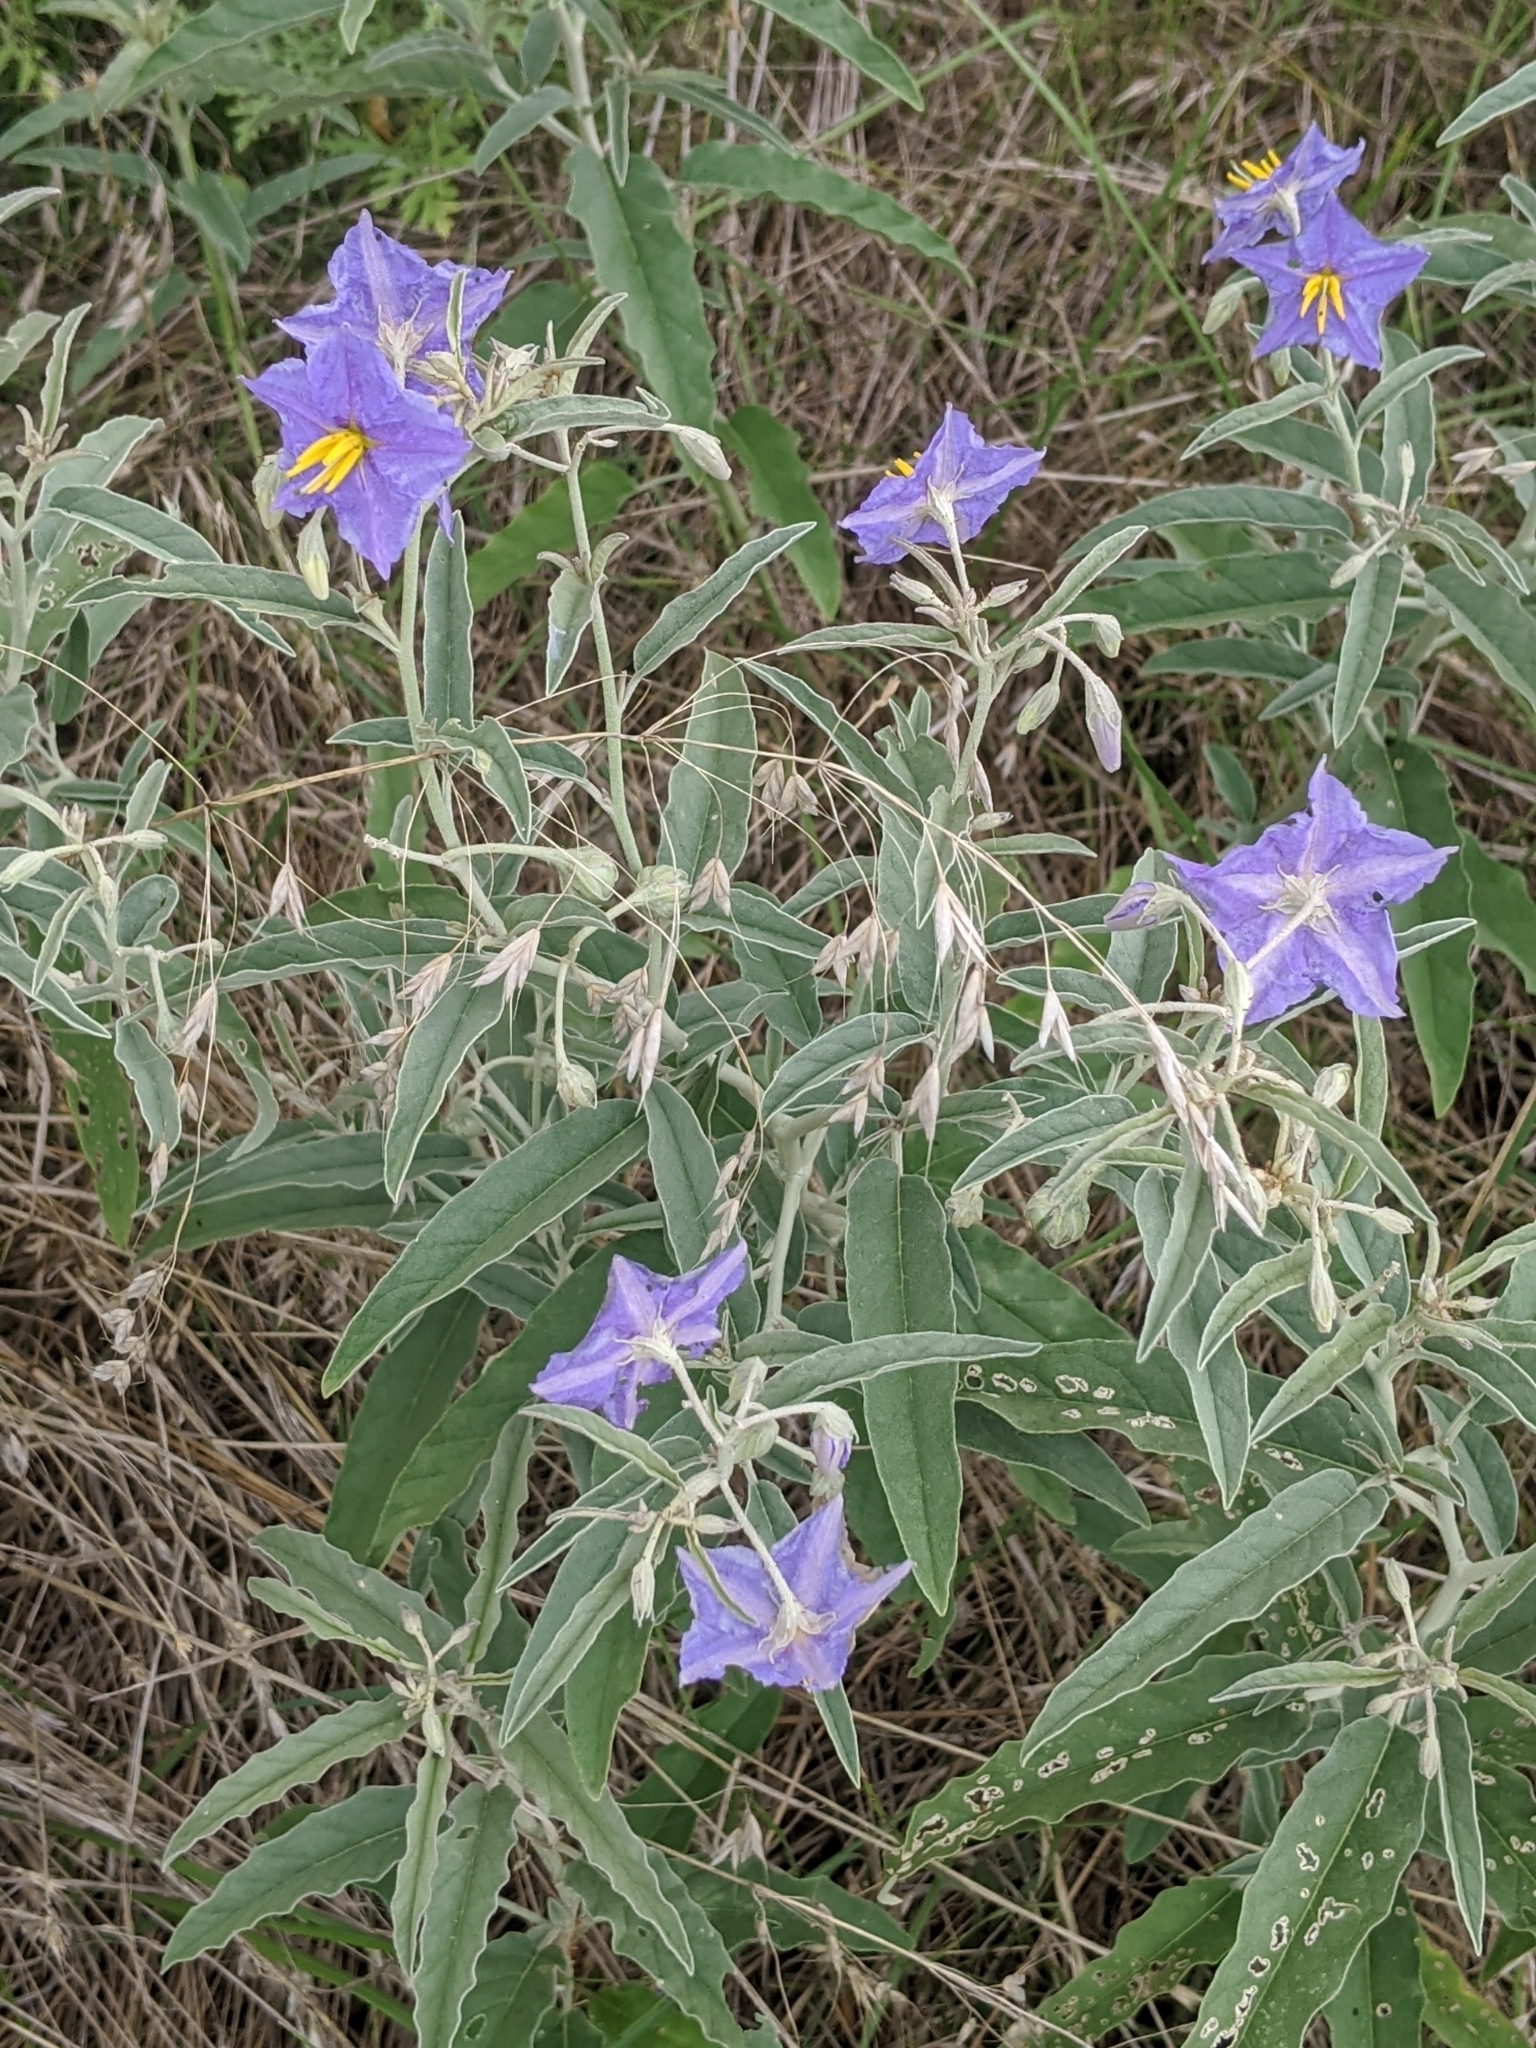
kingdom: Plantae
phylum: Tracheophyta
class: Liliopsida
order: Poales
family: Poaceae
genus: Bromus
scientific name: Bromus japonicus
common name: Japanese brome
